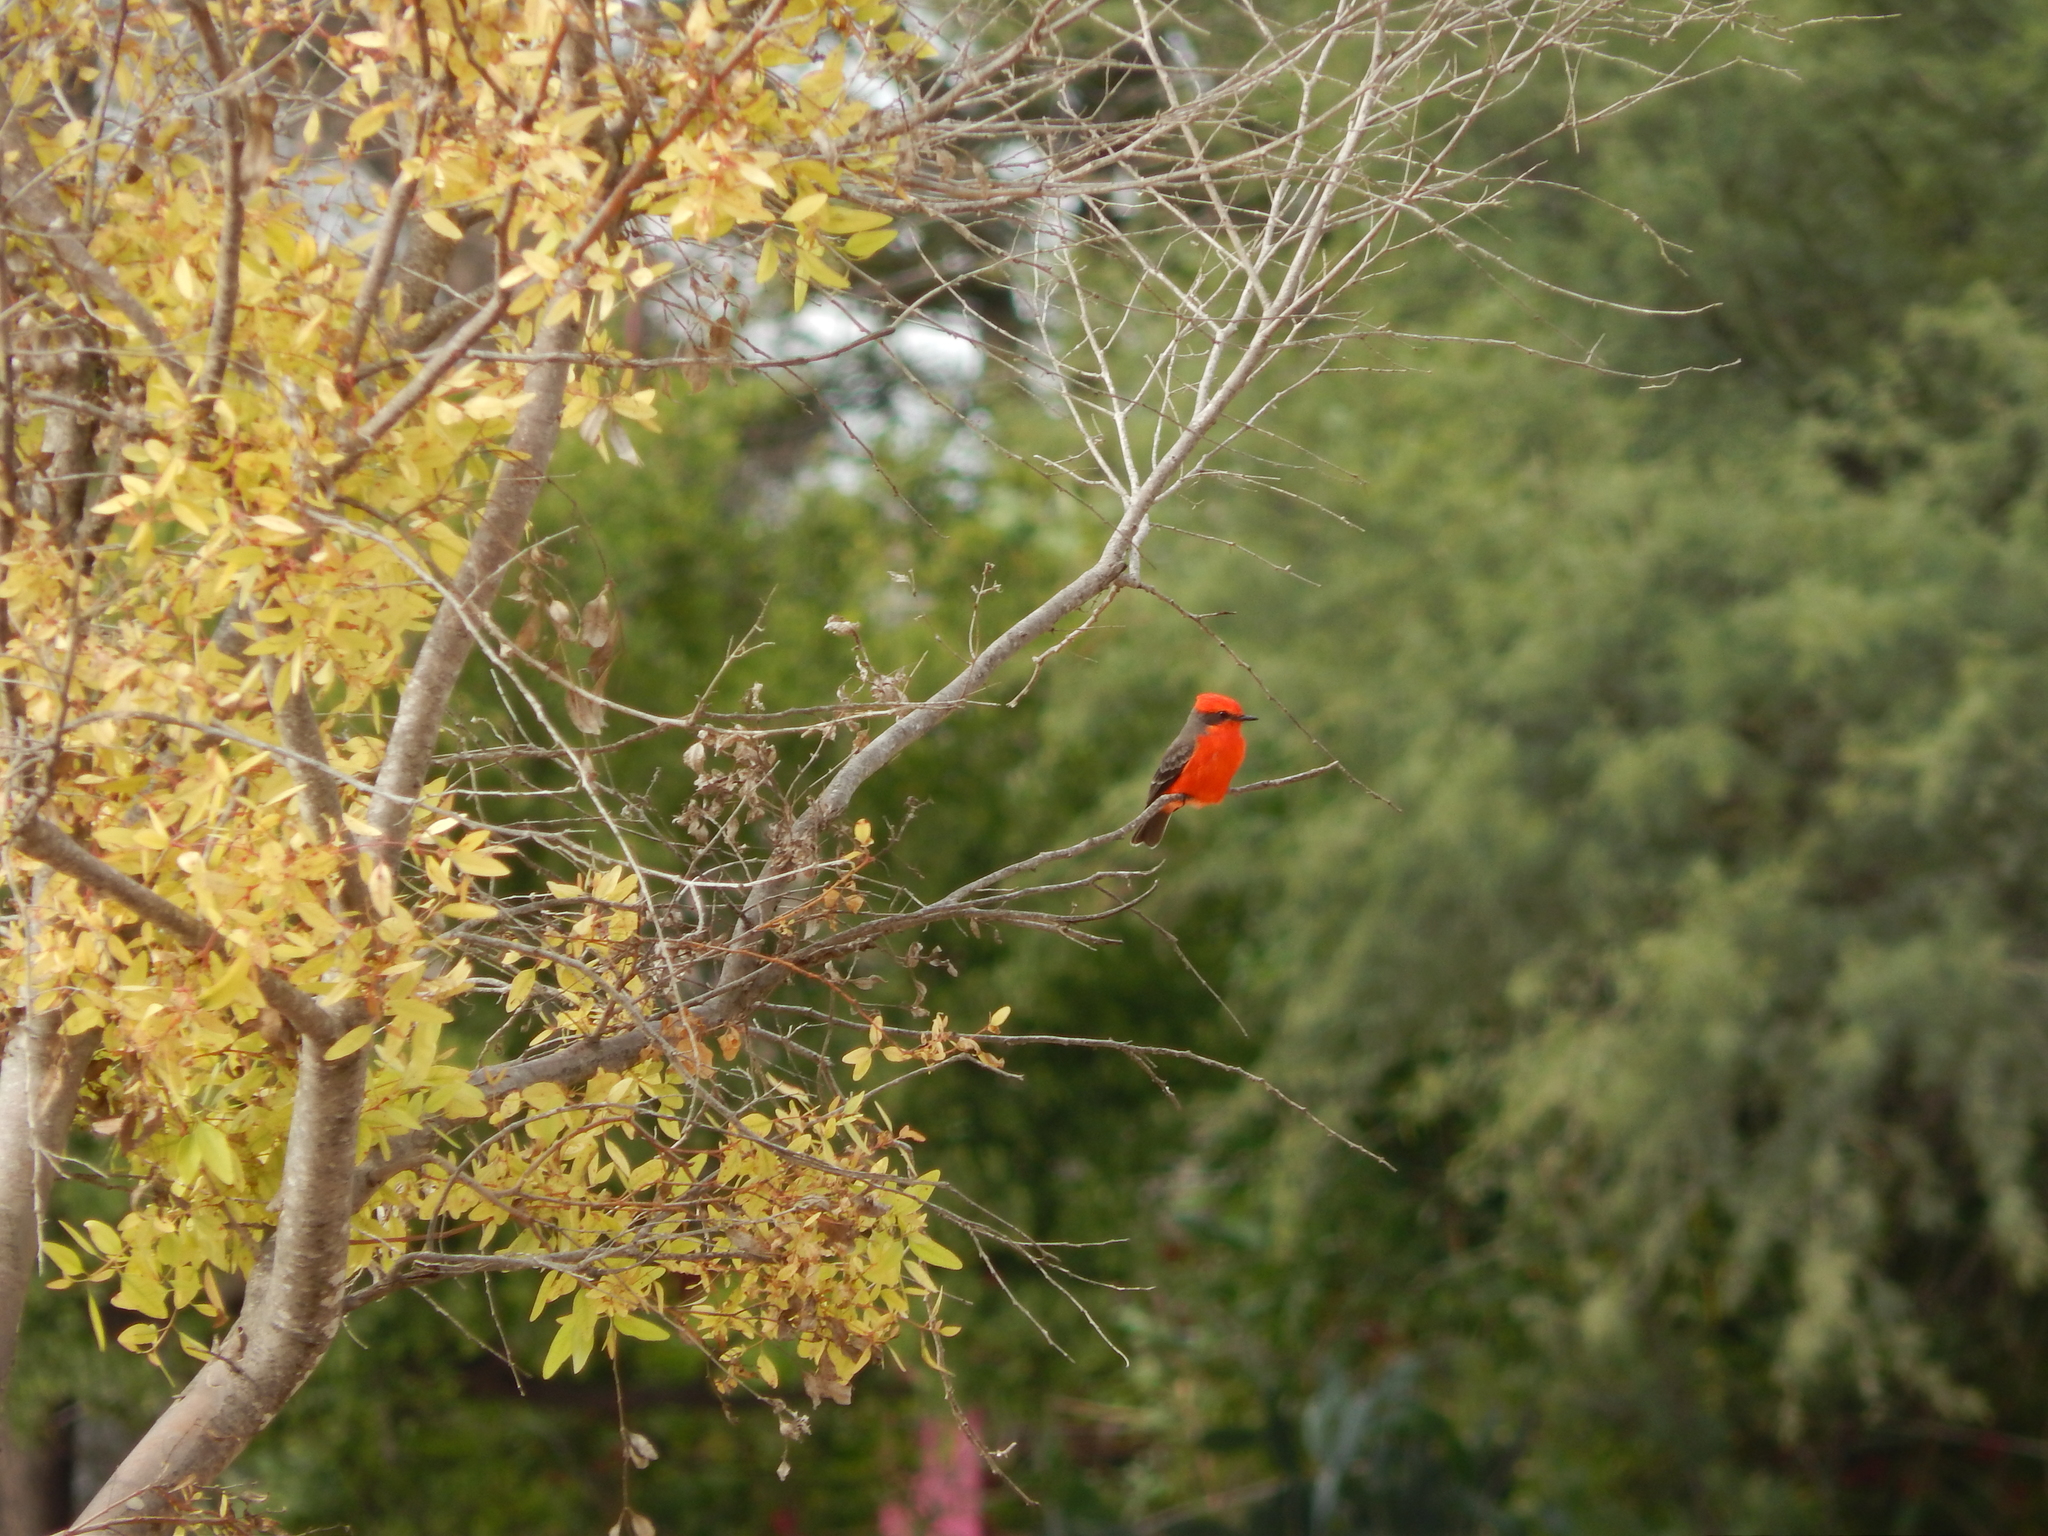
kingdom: Animalia
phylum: Chordata
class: Aves
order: Passeriformes
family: Tyrannidae
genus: Pyrocephalus
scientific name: Pyrocephalus rubinus
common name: Vermilion flycatcher
